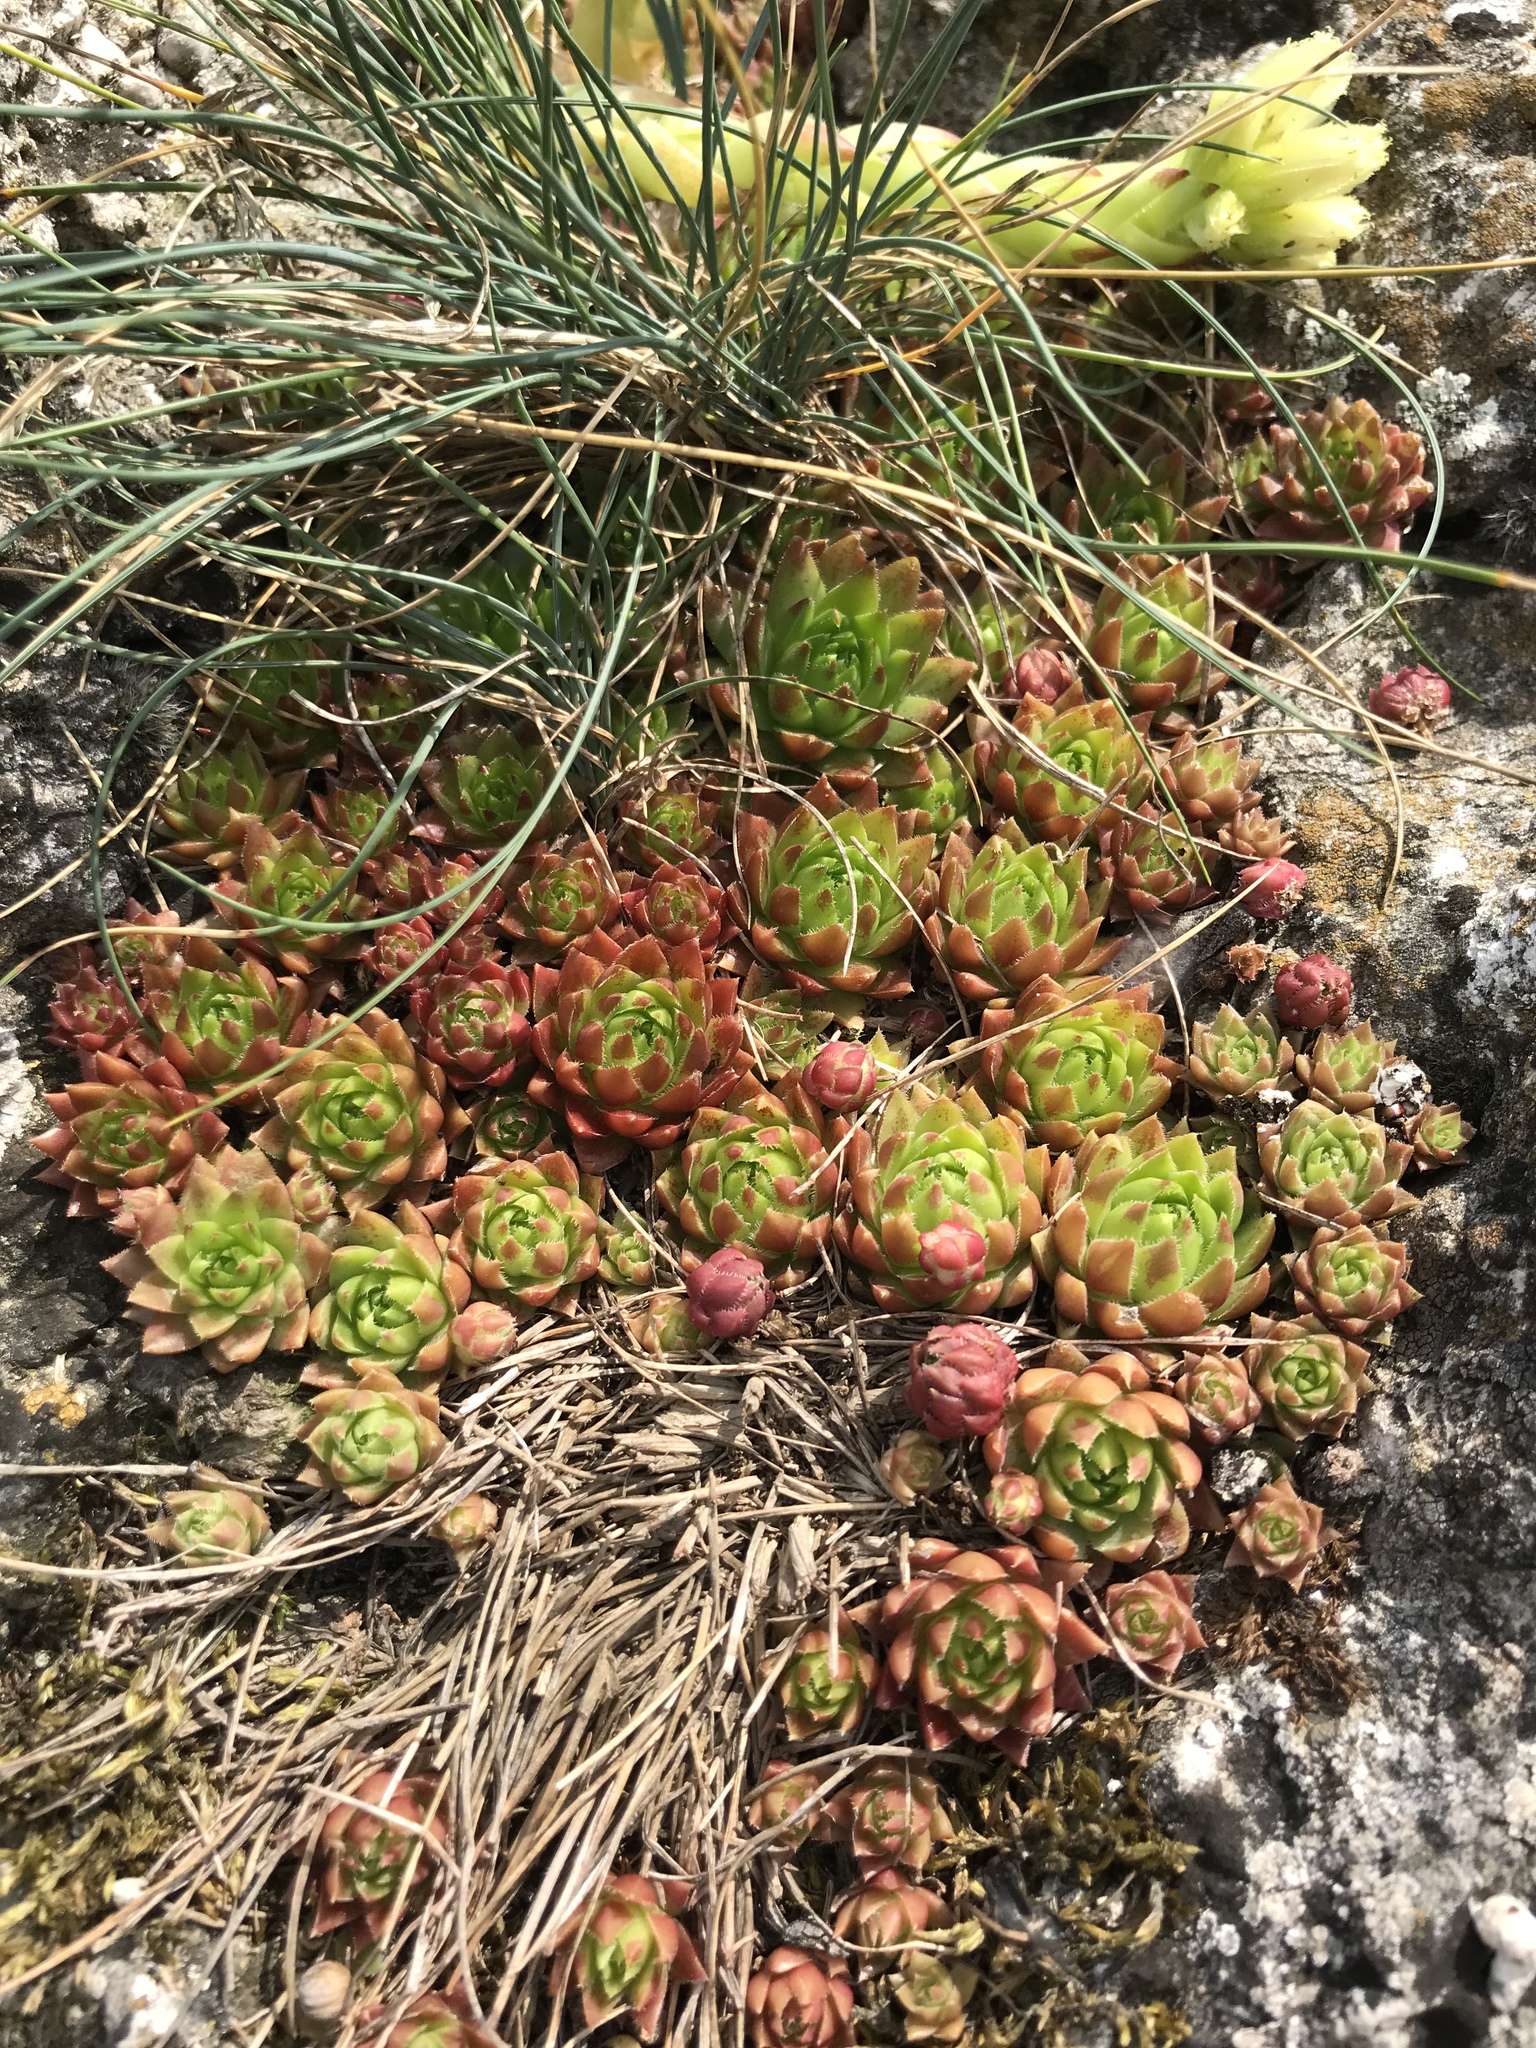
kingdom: Plantae
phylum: Tracheophyta
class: Magnoliopsida
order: Saxifragales
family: Crassulaceae
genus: Sempervivum
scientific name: Sempervivum globiferum
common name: Rolling hen-and-chicks
